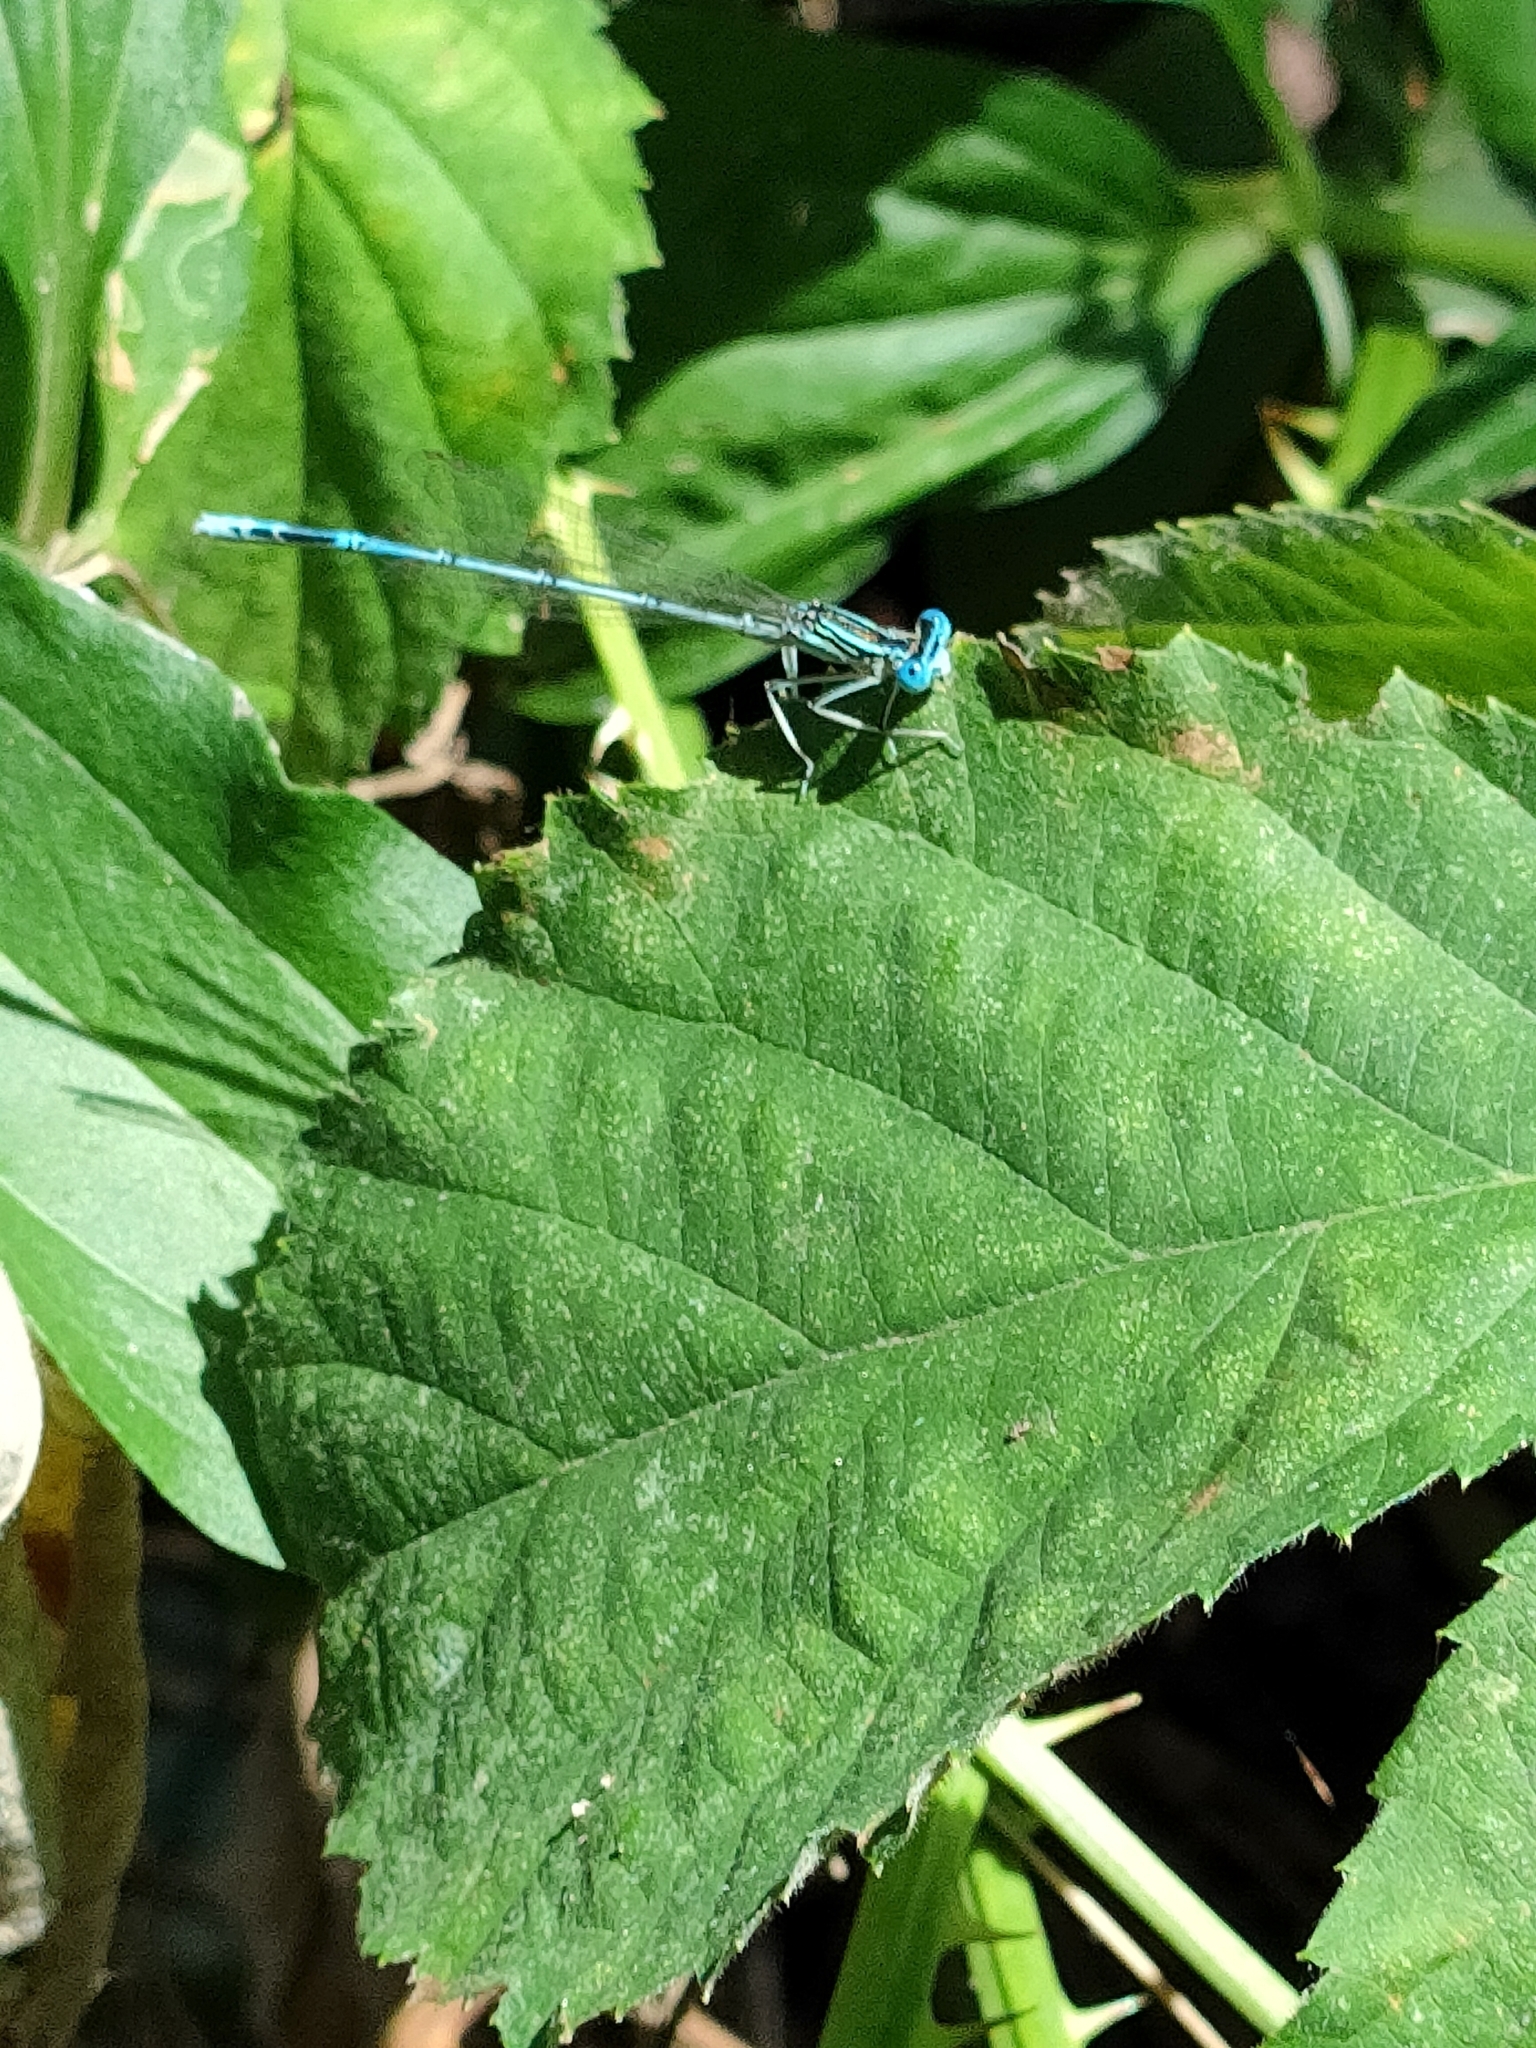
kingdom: Animalia
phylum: Arthropoda
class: Insecta
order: Odonata
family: Platycnemididae
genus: Platycnemis
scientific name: Platycnemis pennipes
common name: White-legged damselfly
